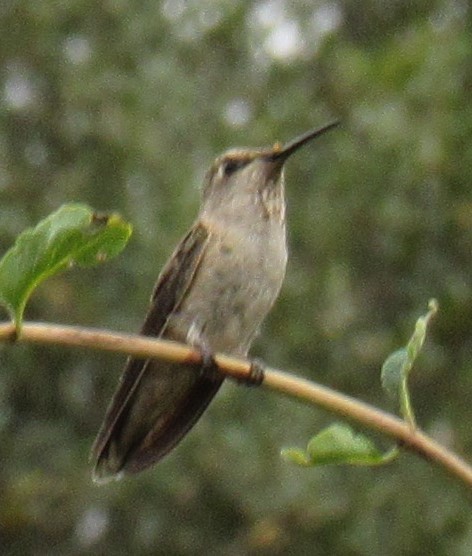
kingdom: Animalia
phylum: Chordata
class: Aves
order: Apodiformes
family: Trochilidae
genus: Calypte
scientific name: Calypte anna
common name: Anna's hummingbird
